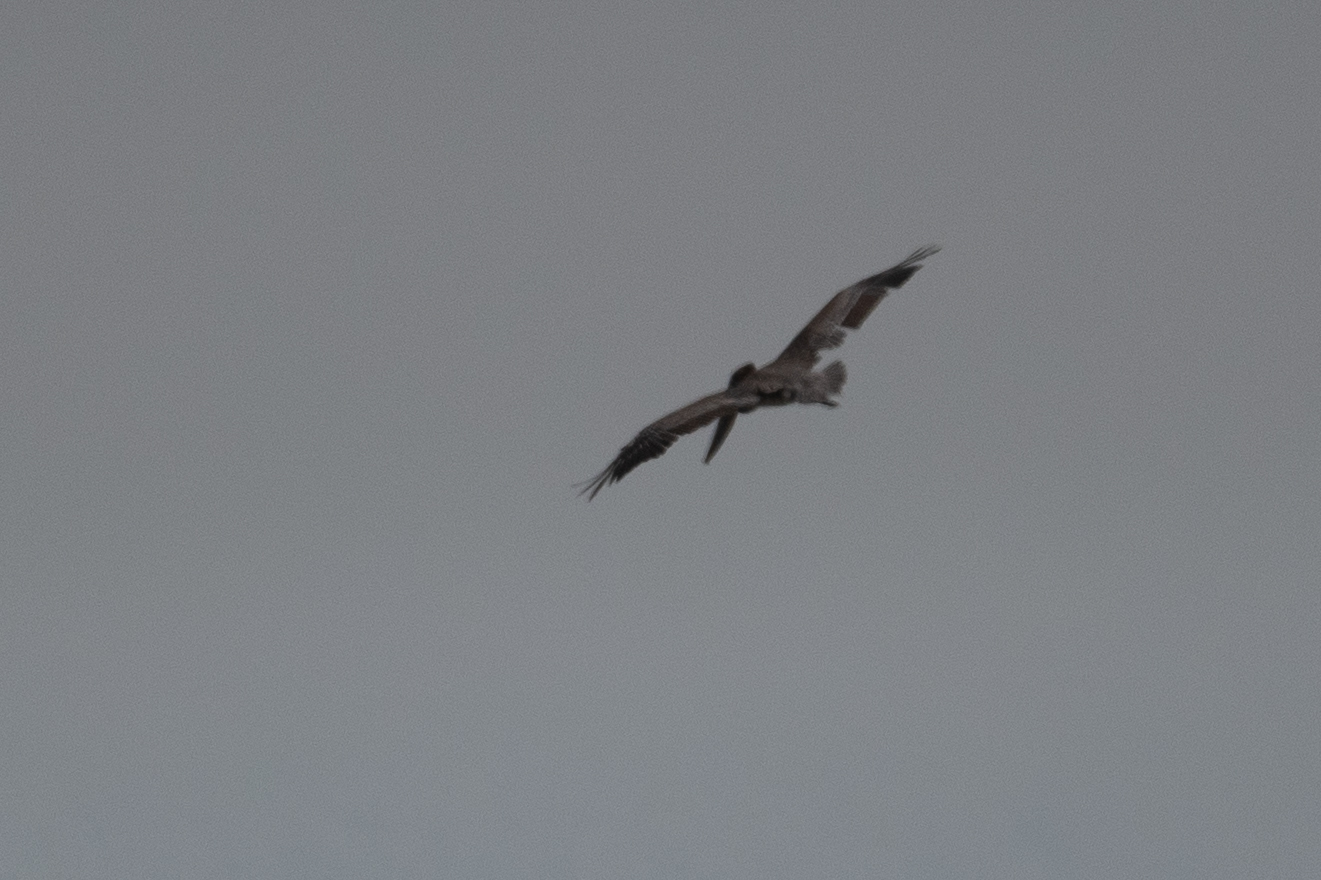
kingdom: Animalia
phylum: Chordata
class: Aves
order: Pelecaniformes
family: Pelecanidae
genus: Pelecanus
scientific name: Pelecanus occidentalis
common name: Brown pelican
